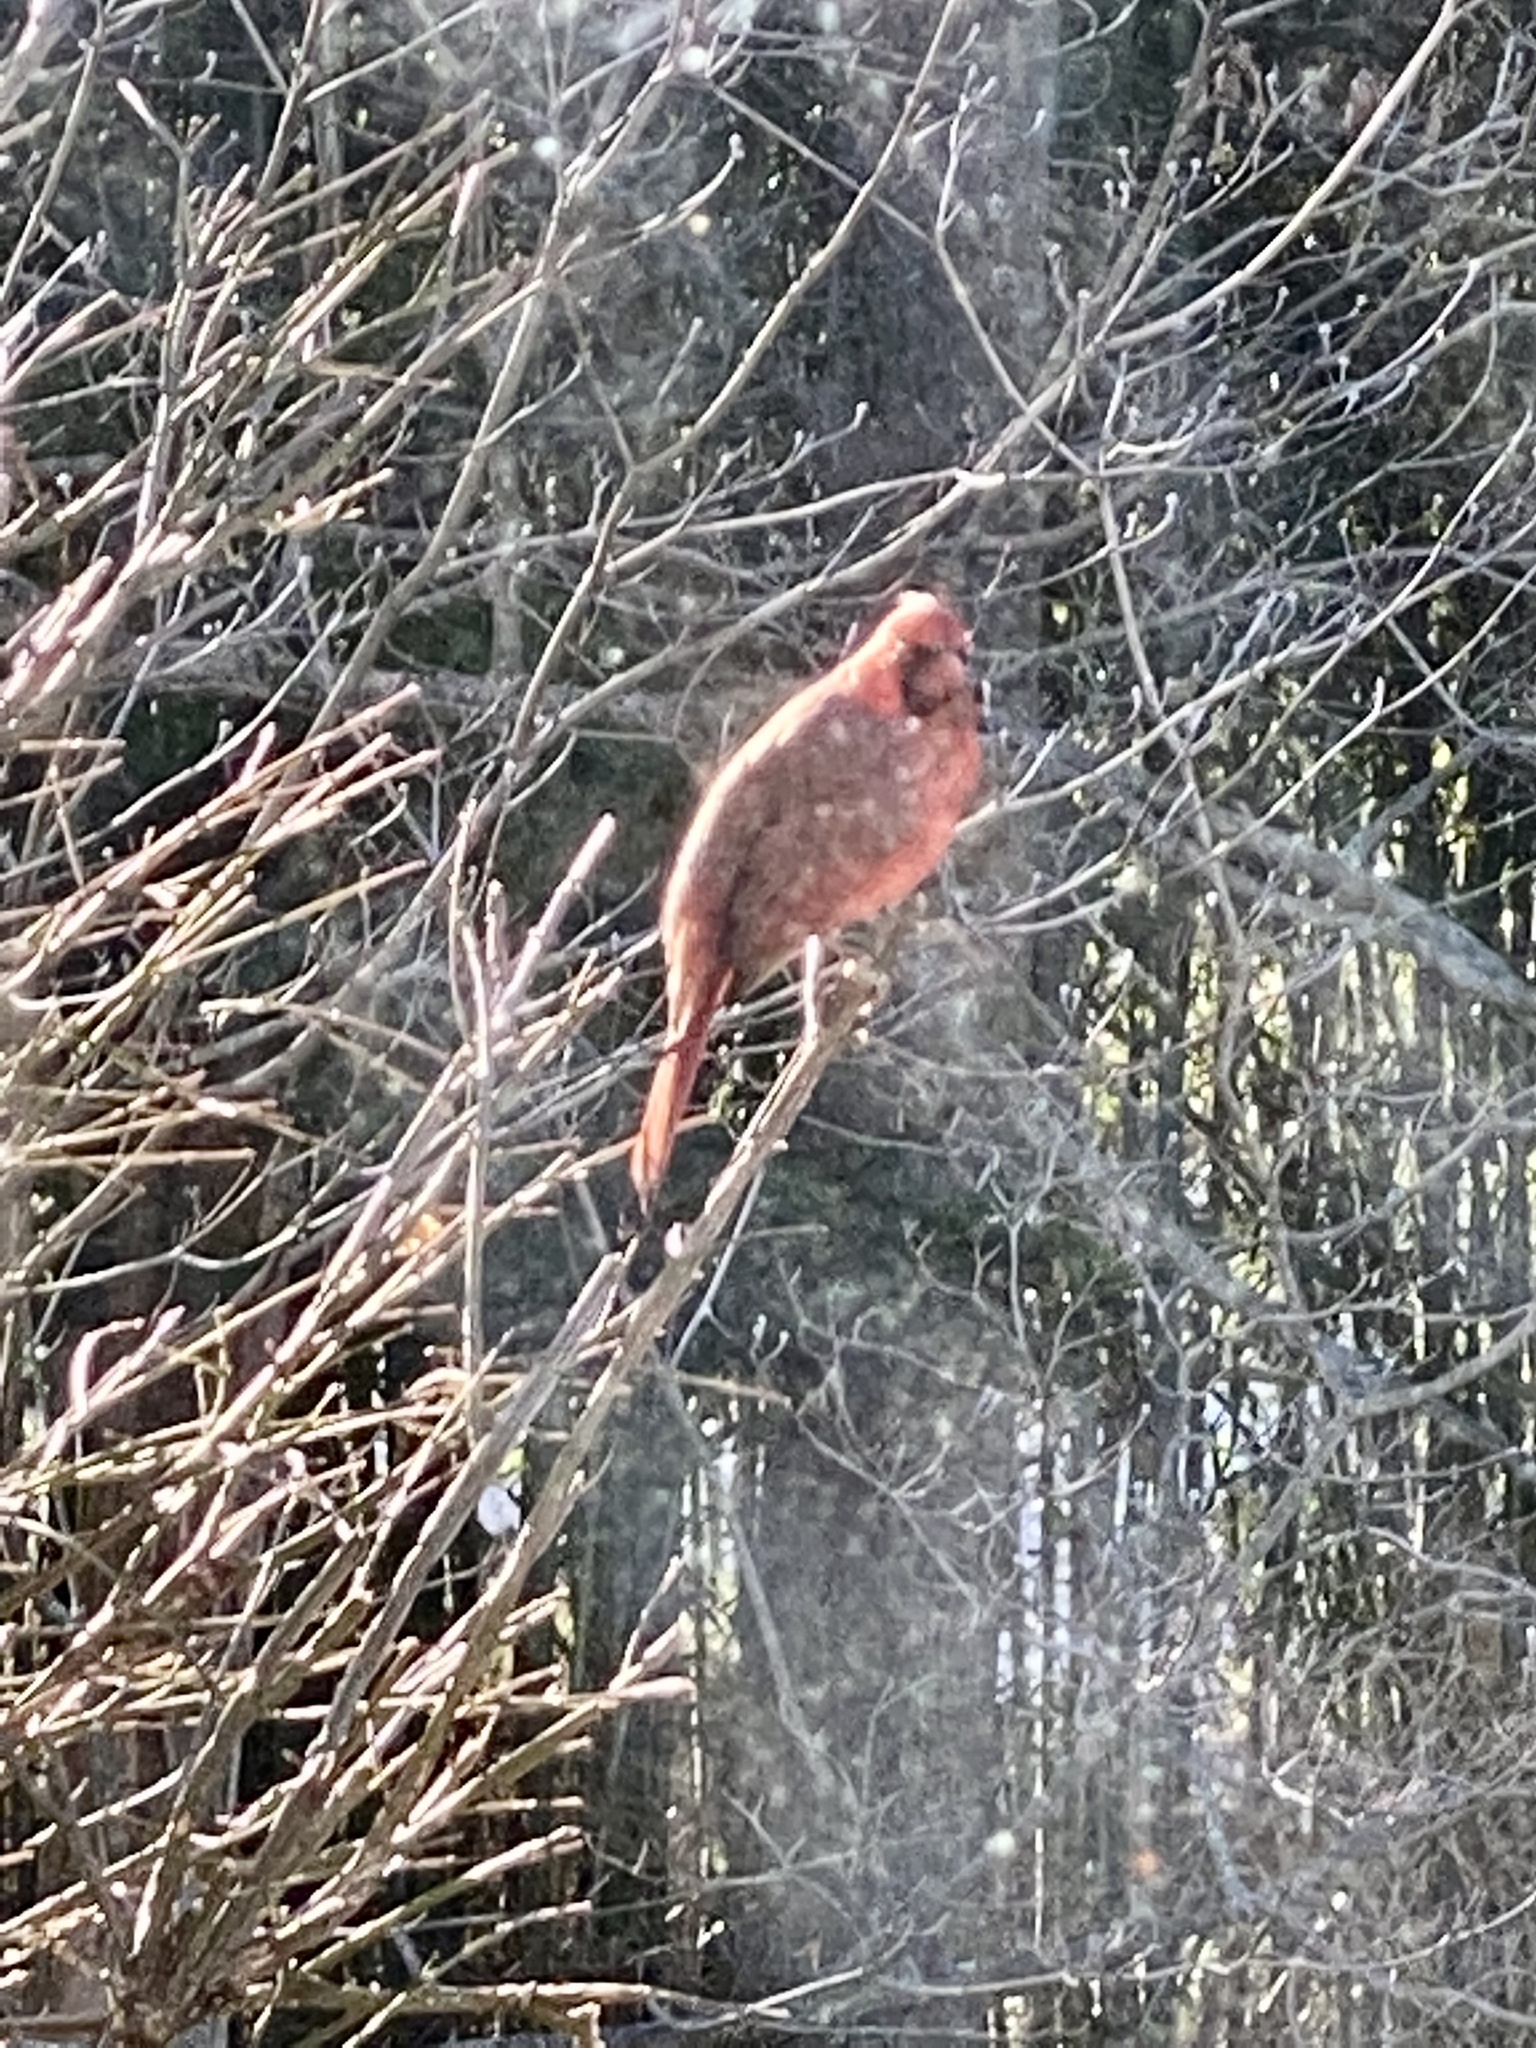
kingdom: Animalia
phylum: Chordata
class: Aves
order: Passeriformes
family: Cardinalidae
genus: Cardinalis
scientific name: Cardinalis cardinalis
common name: Northern cardinal
